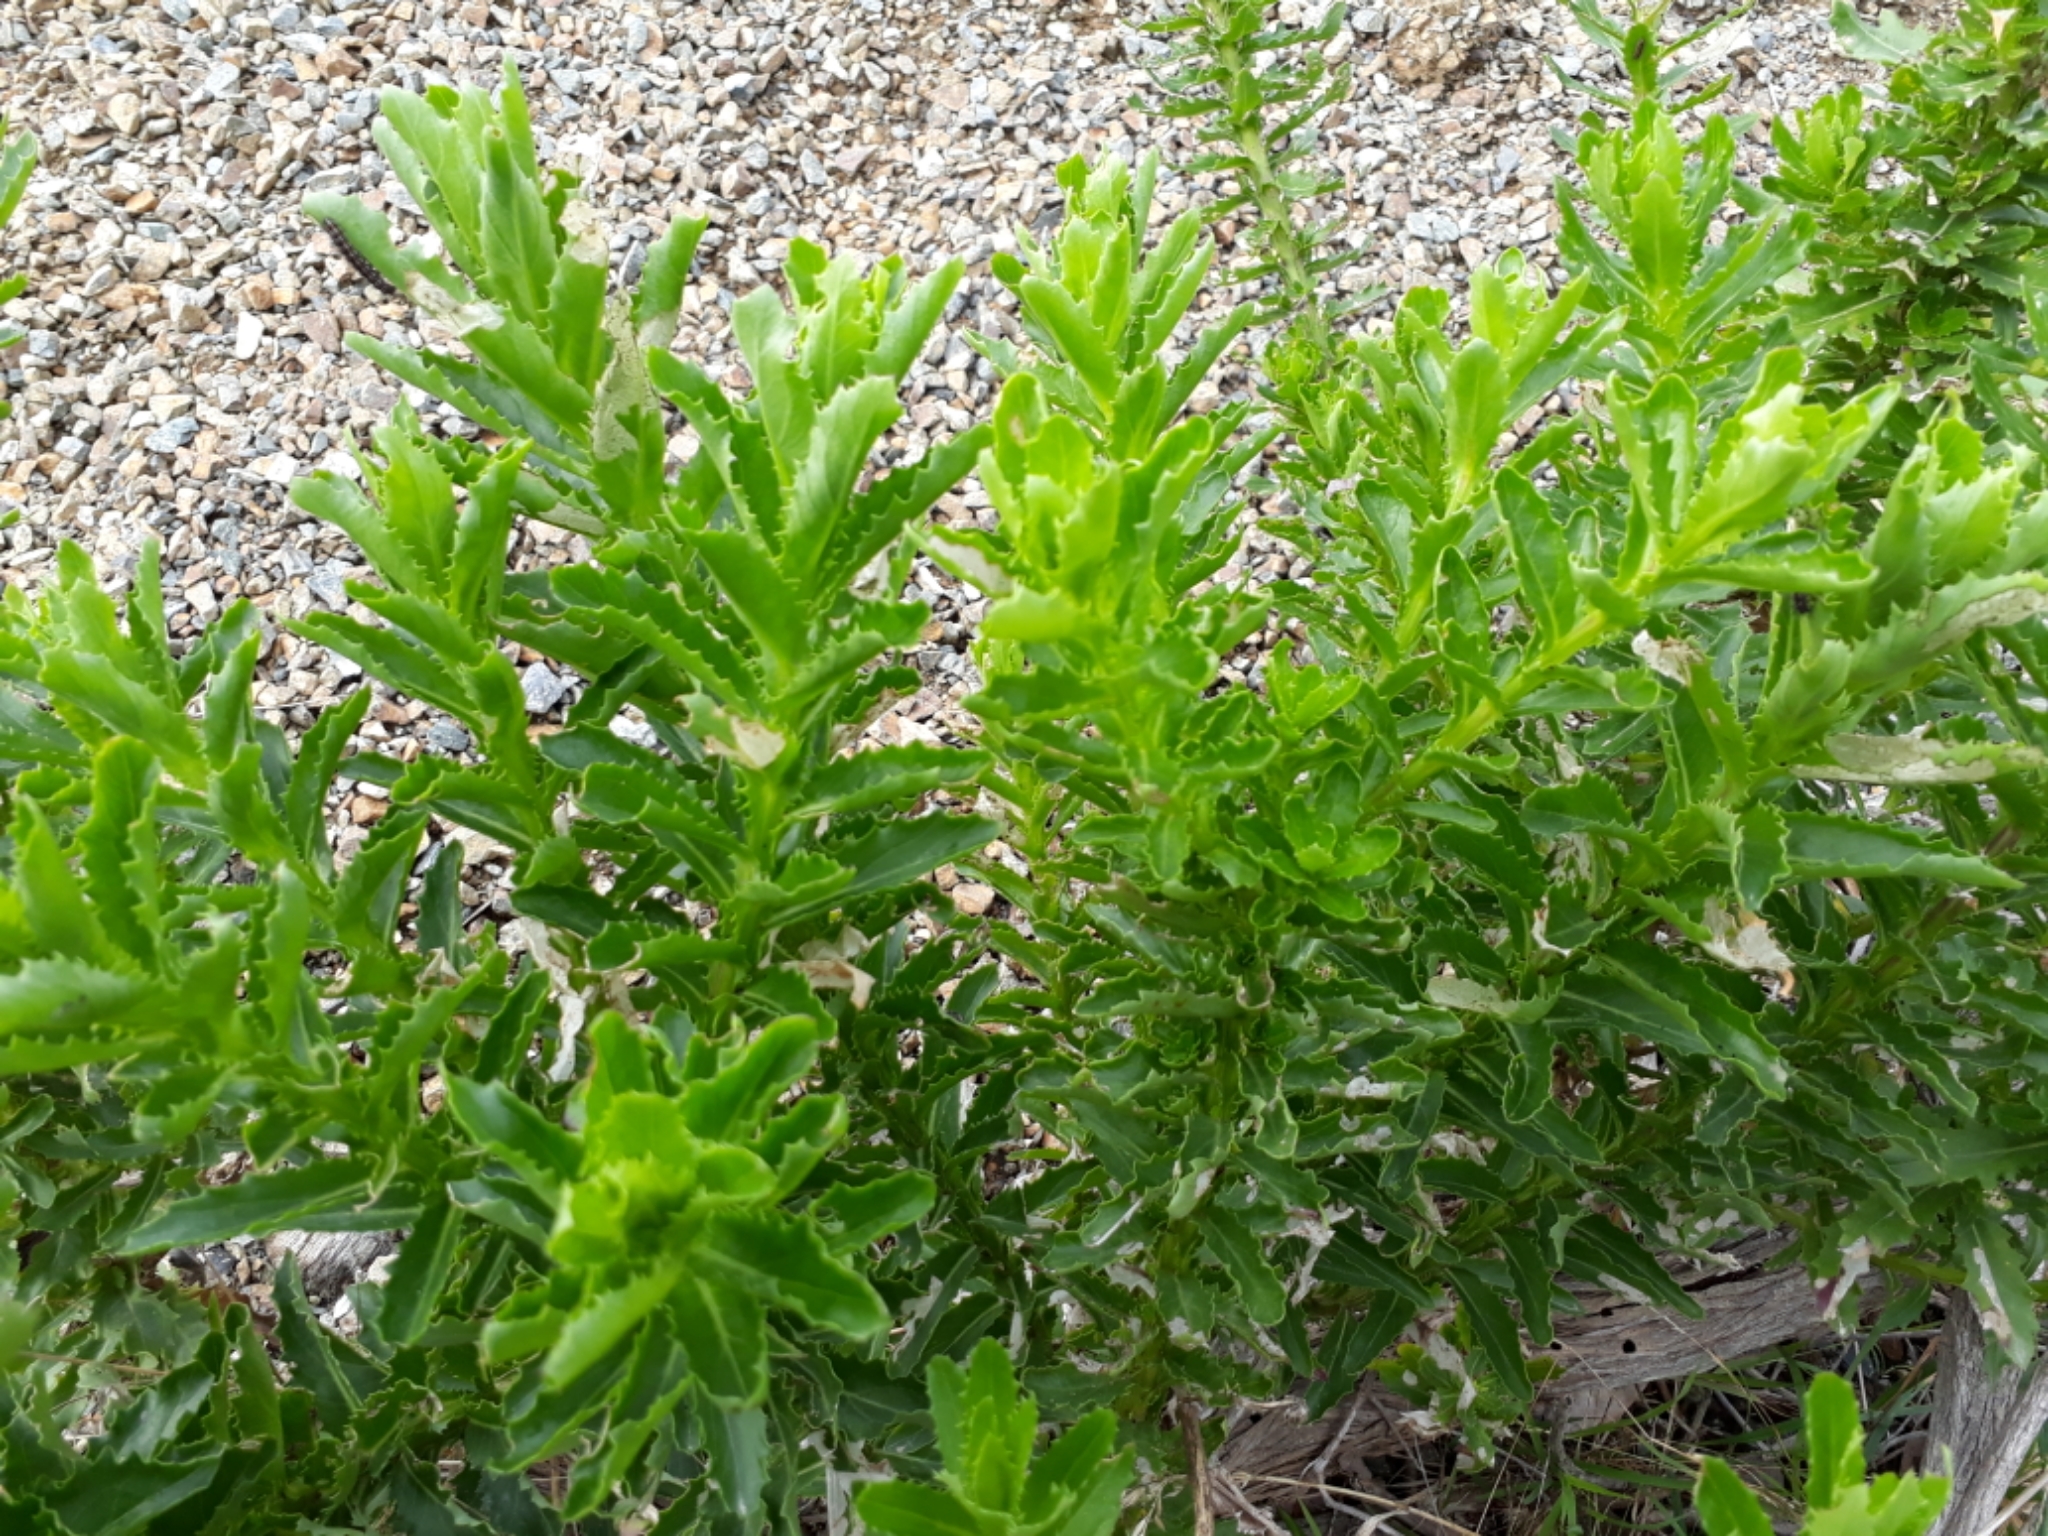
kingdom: Plantae
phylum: Tracheophyta
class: Magnoliopsida
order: Asterales
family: Asteraceae
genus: Senecio
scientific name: Senecio glastifolius
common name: Woad-leaved ragwort
